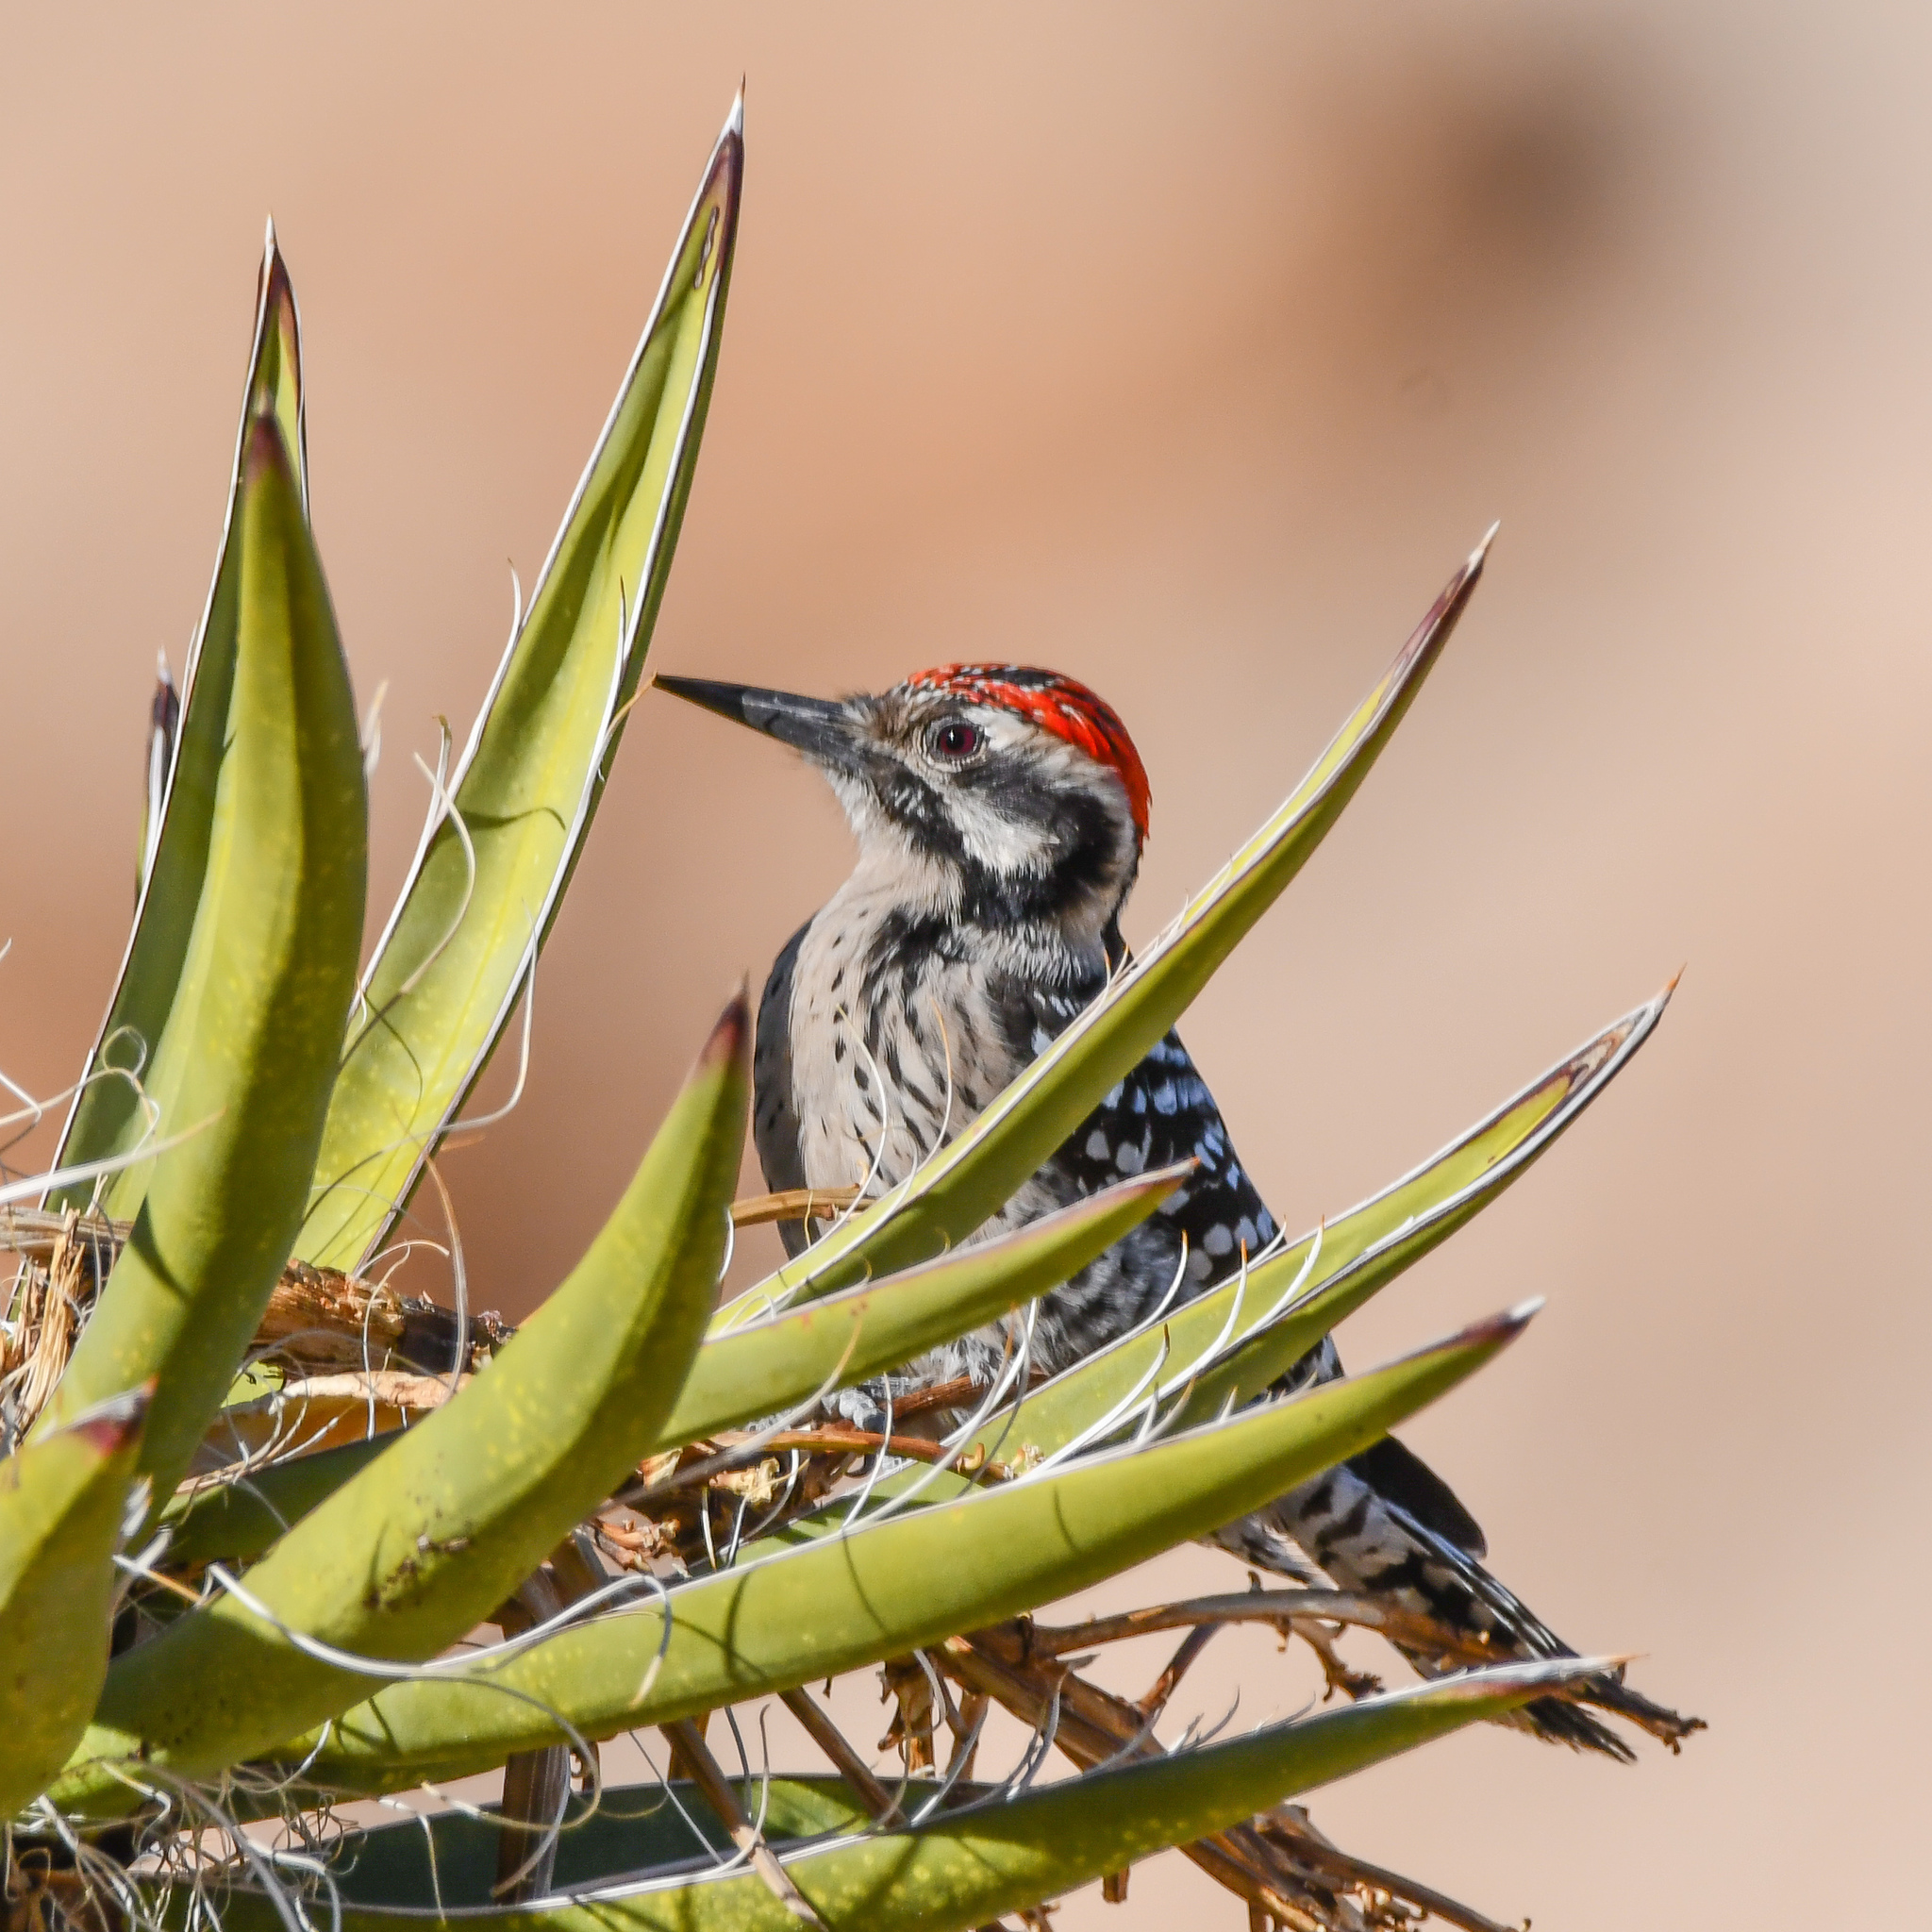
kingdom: Animalia
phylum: Chordata
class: Aves
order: Piciformes
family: Picidae
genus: Dryobates
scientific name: Dryobates scalaris
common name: Ladder-backed woodpecker
